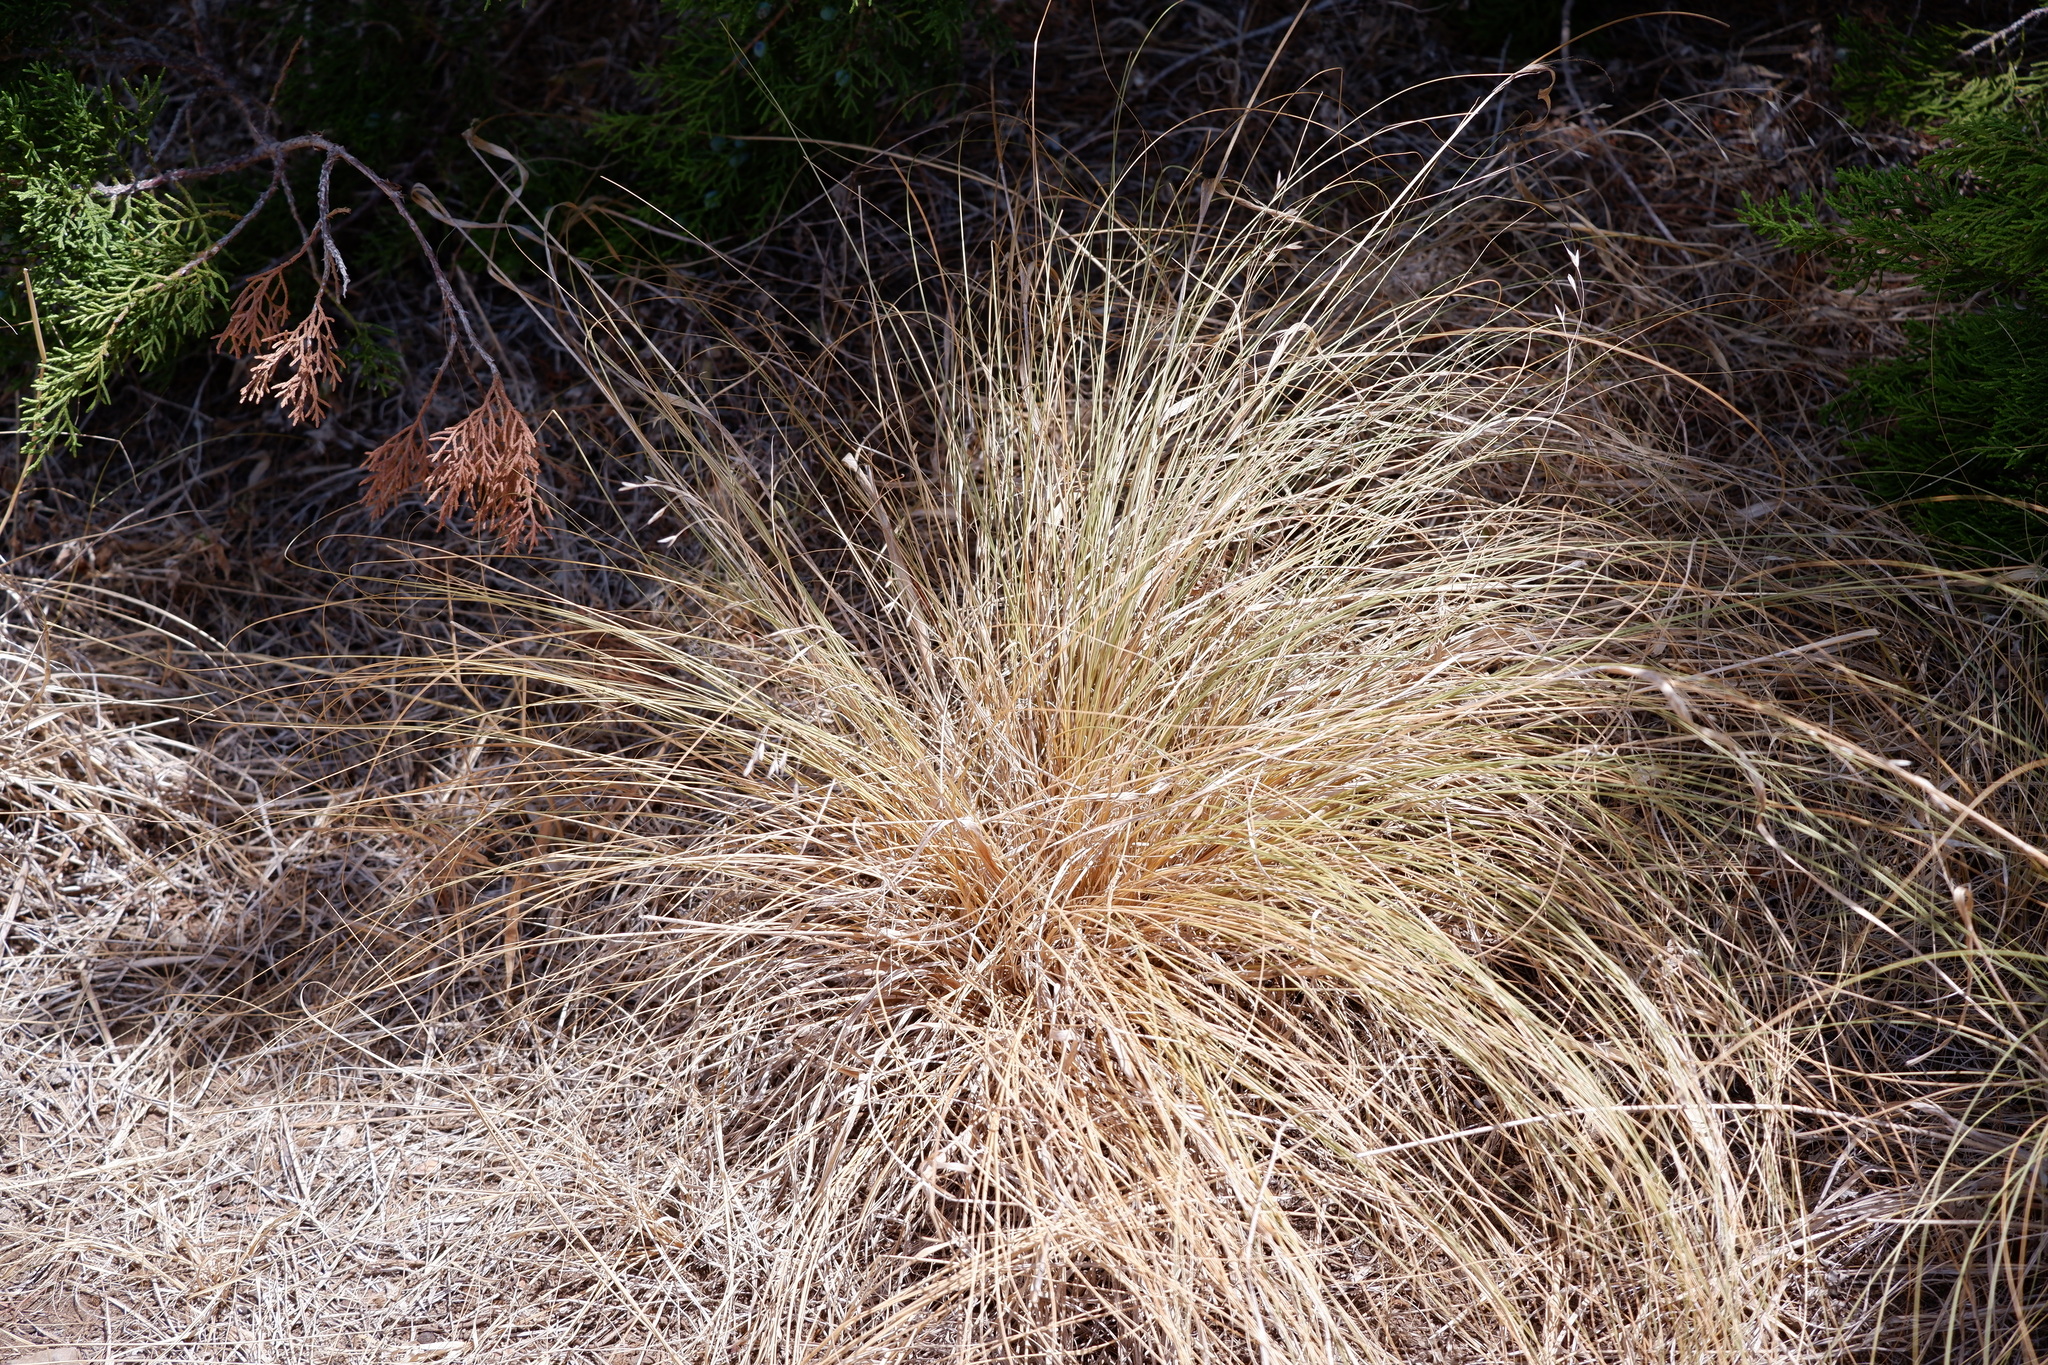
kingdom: Plantae
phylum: Tracheophyta
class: Liliopsida
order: Poales
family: Poaceae
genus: Bromus
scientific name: Bromus japonicus
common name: Japanese brome
